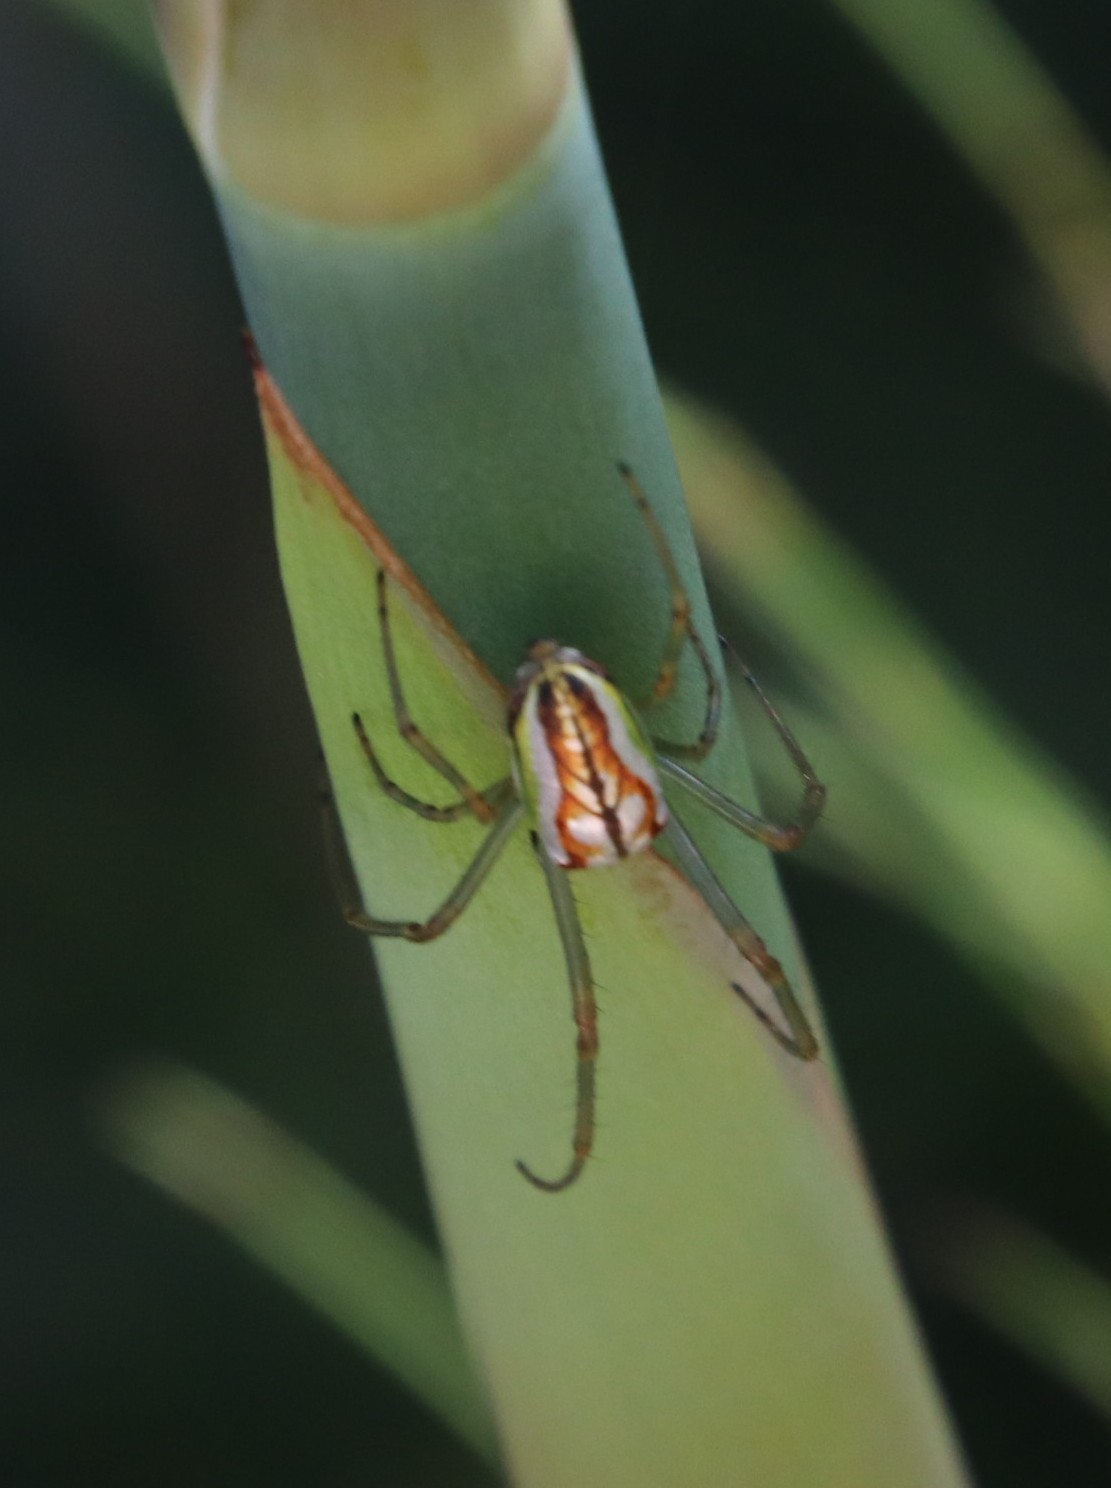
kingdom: Animalia
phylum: Arthropoda
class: Arachnida
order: Araneae
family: Tetragnathidae
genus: Leucauge
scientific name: Leucauge festiva
